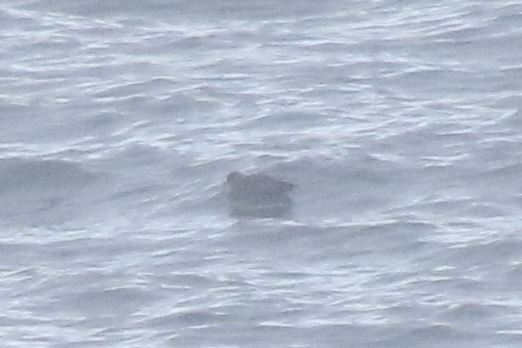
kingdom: Animalia
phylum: Chordata
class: Aves
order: Procellariiformes
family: Procellariidae
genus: Fulmarus
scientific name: Fulmarus glacialis
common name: Northern fulmar
